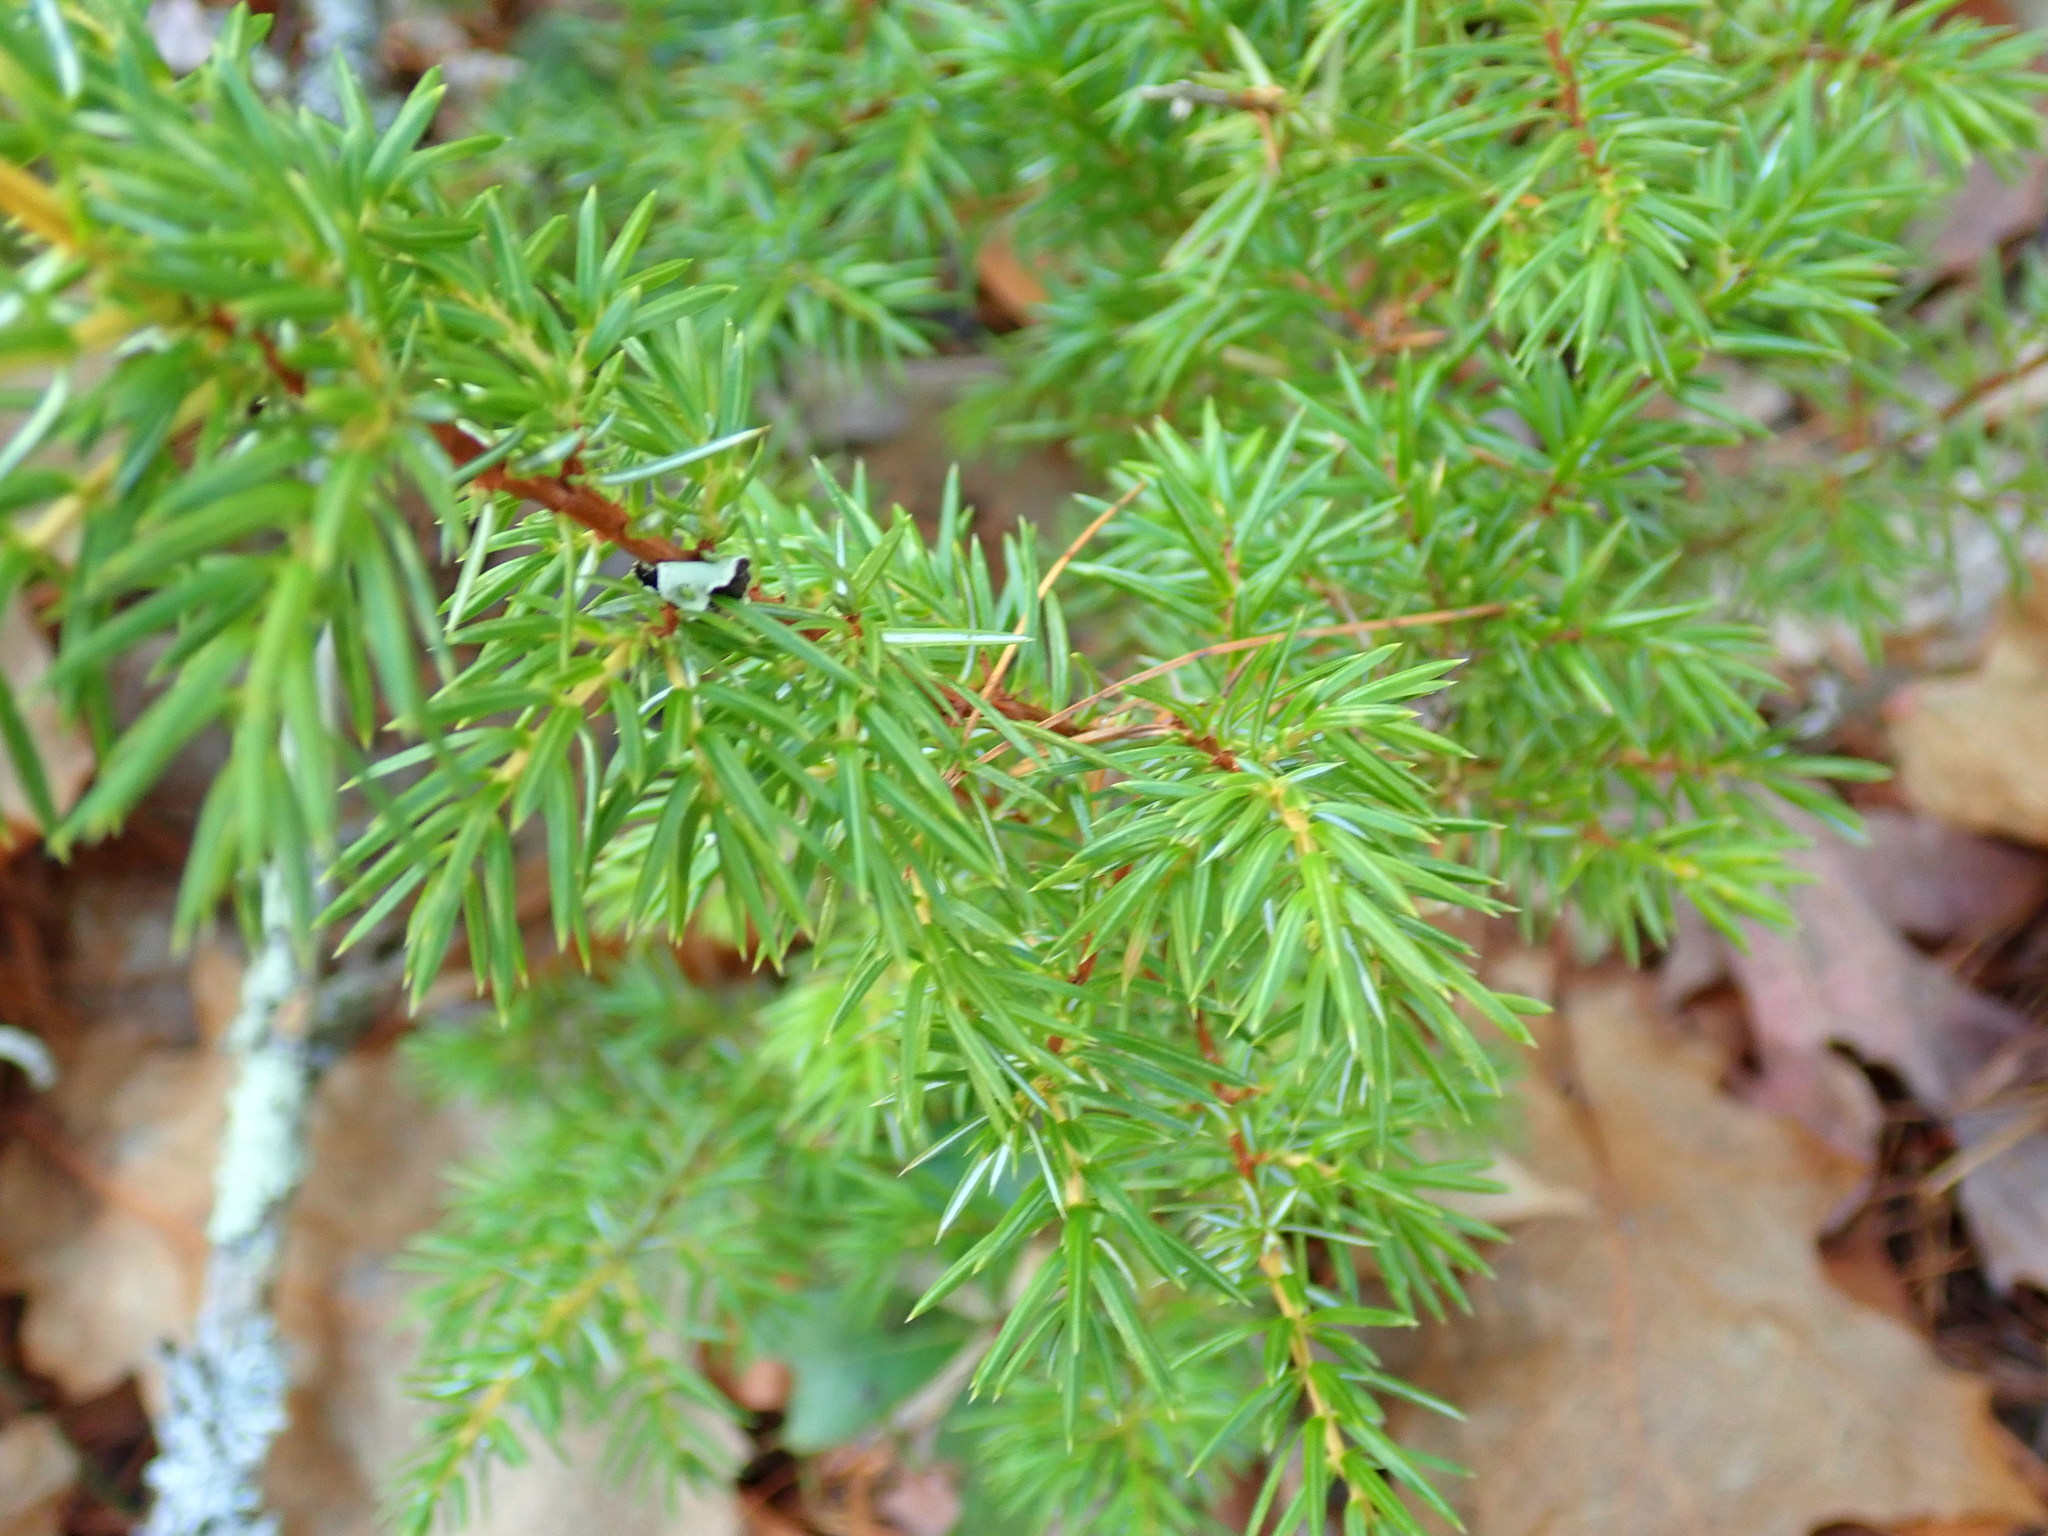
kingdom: Plantae
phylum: Tracheophyta
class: Pinopsida
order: Pinales
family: Cupressaceae
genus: Juniperus
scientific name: Juniperus communis
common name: Common juniper
